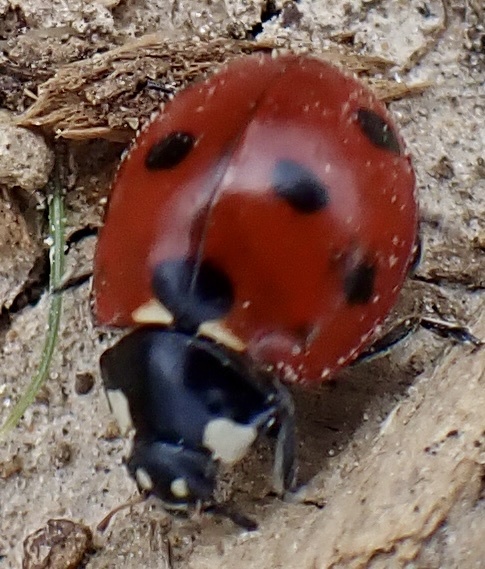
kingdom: Animalia
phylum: Arthropoda
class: Insecta
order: Coleoptera
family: Coccinellidae
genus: Coccinella
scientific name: Coccinella septempunctata
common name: Sevenspotted lady beetle
